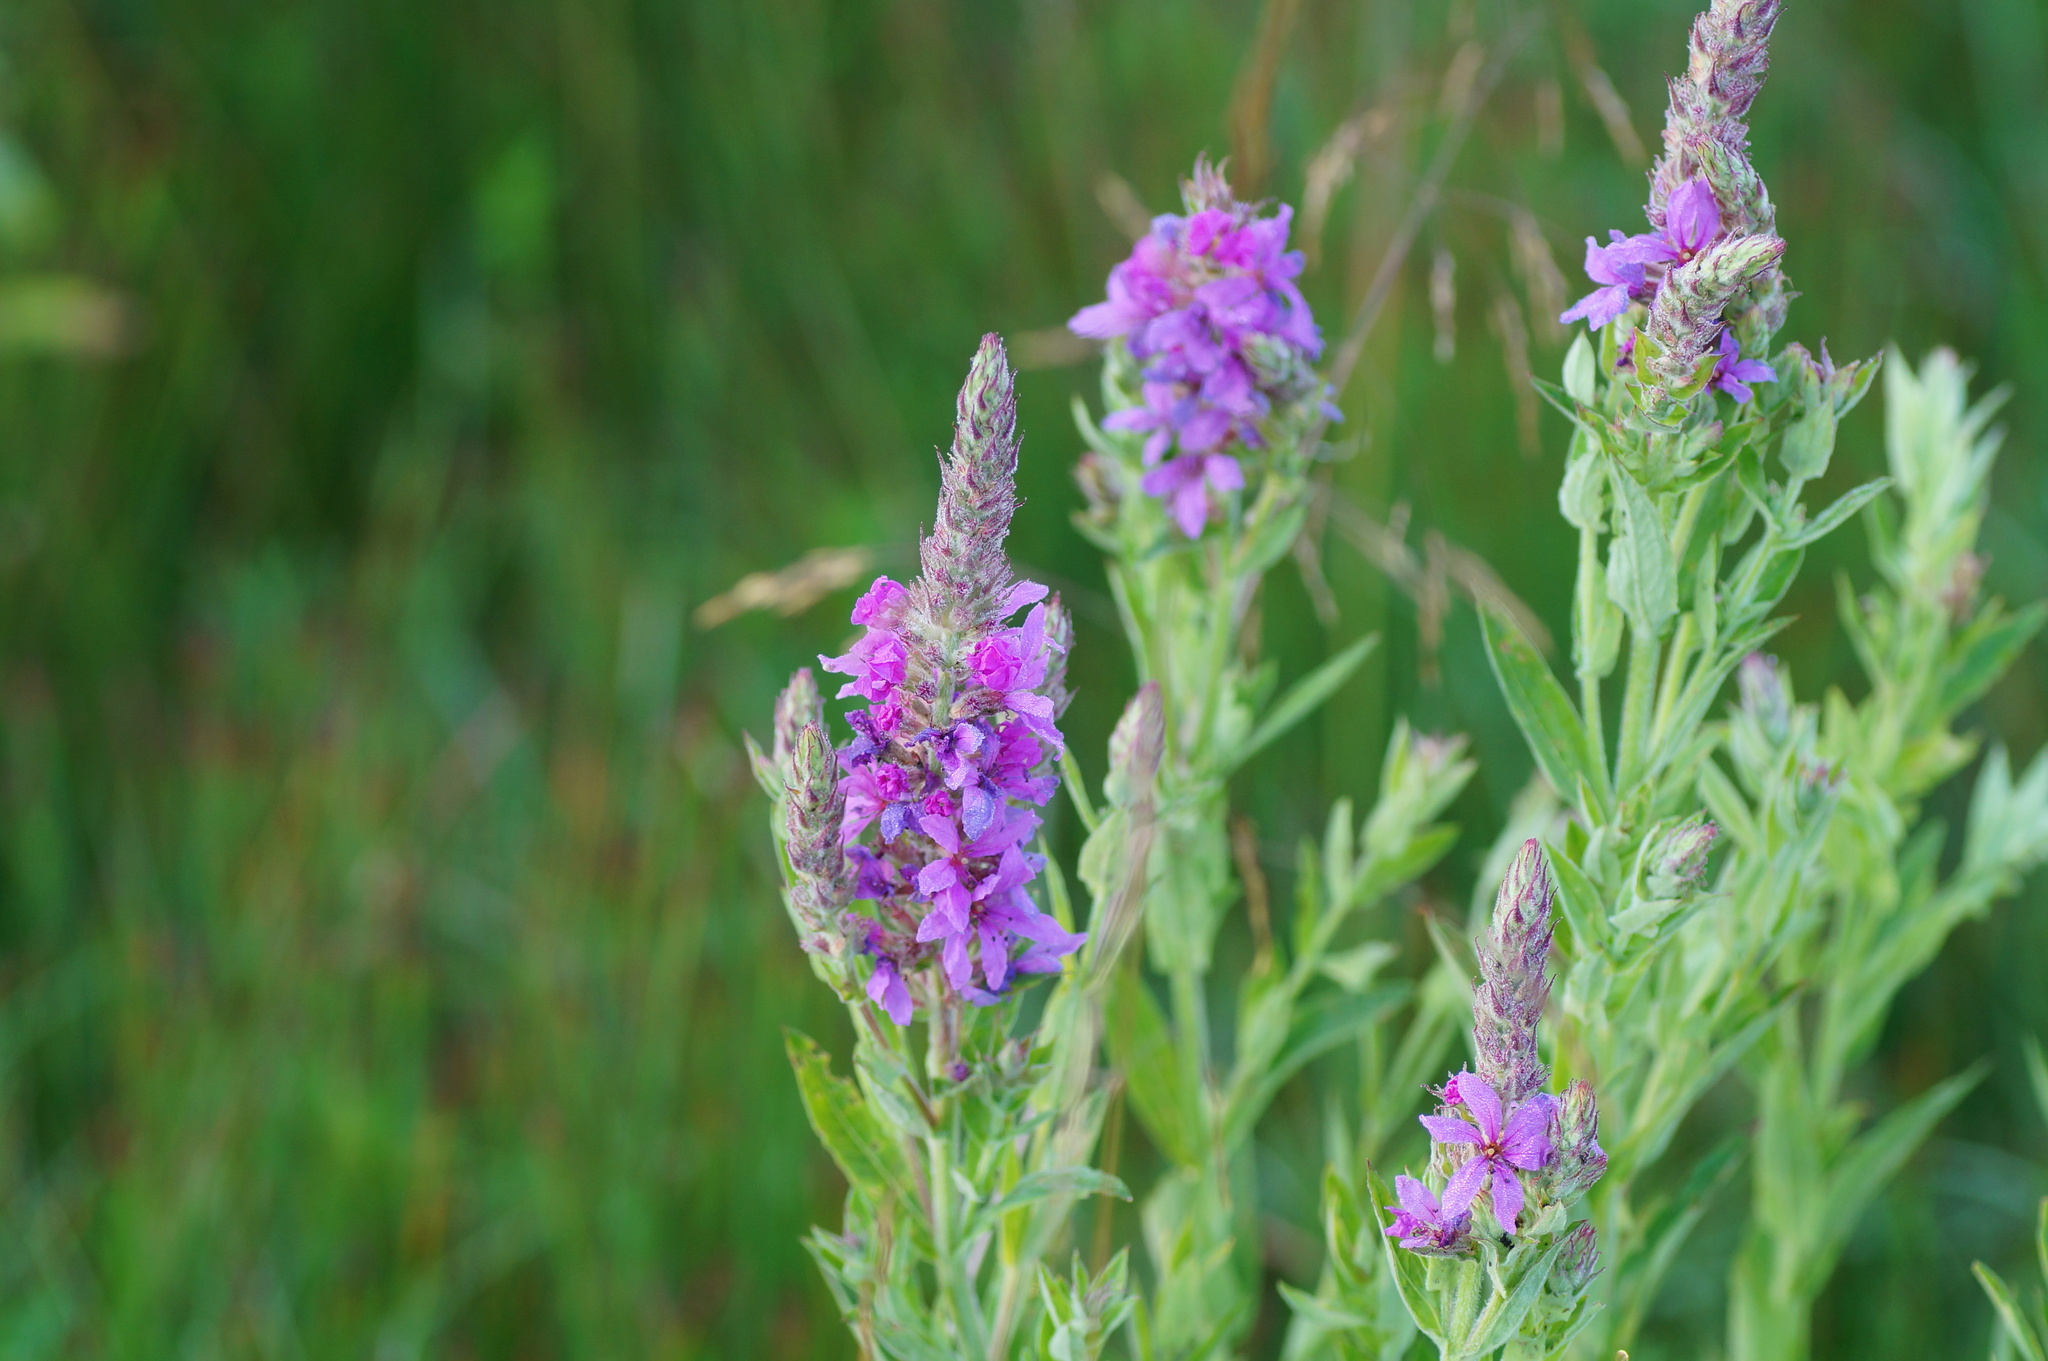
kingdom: Plantae
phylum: Tracheophyta
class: Magnoliopsida
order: Myrtales
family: Lythraceae
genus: Lythrum
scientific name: Lythrum salicaria
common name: Purple loosestrife
